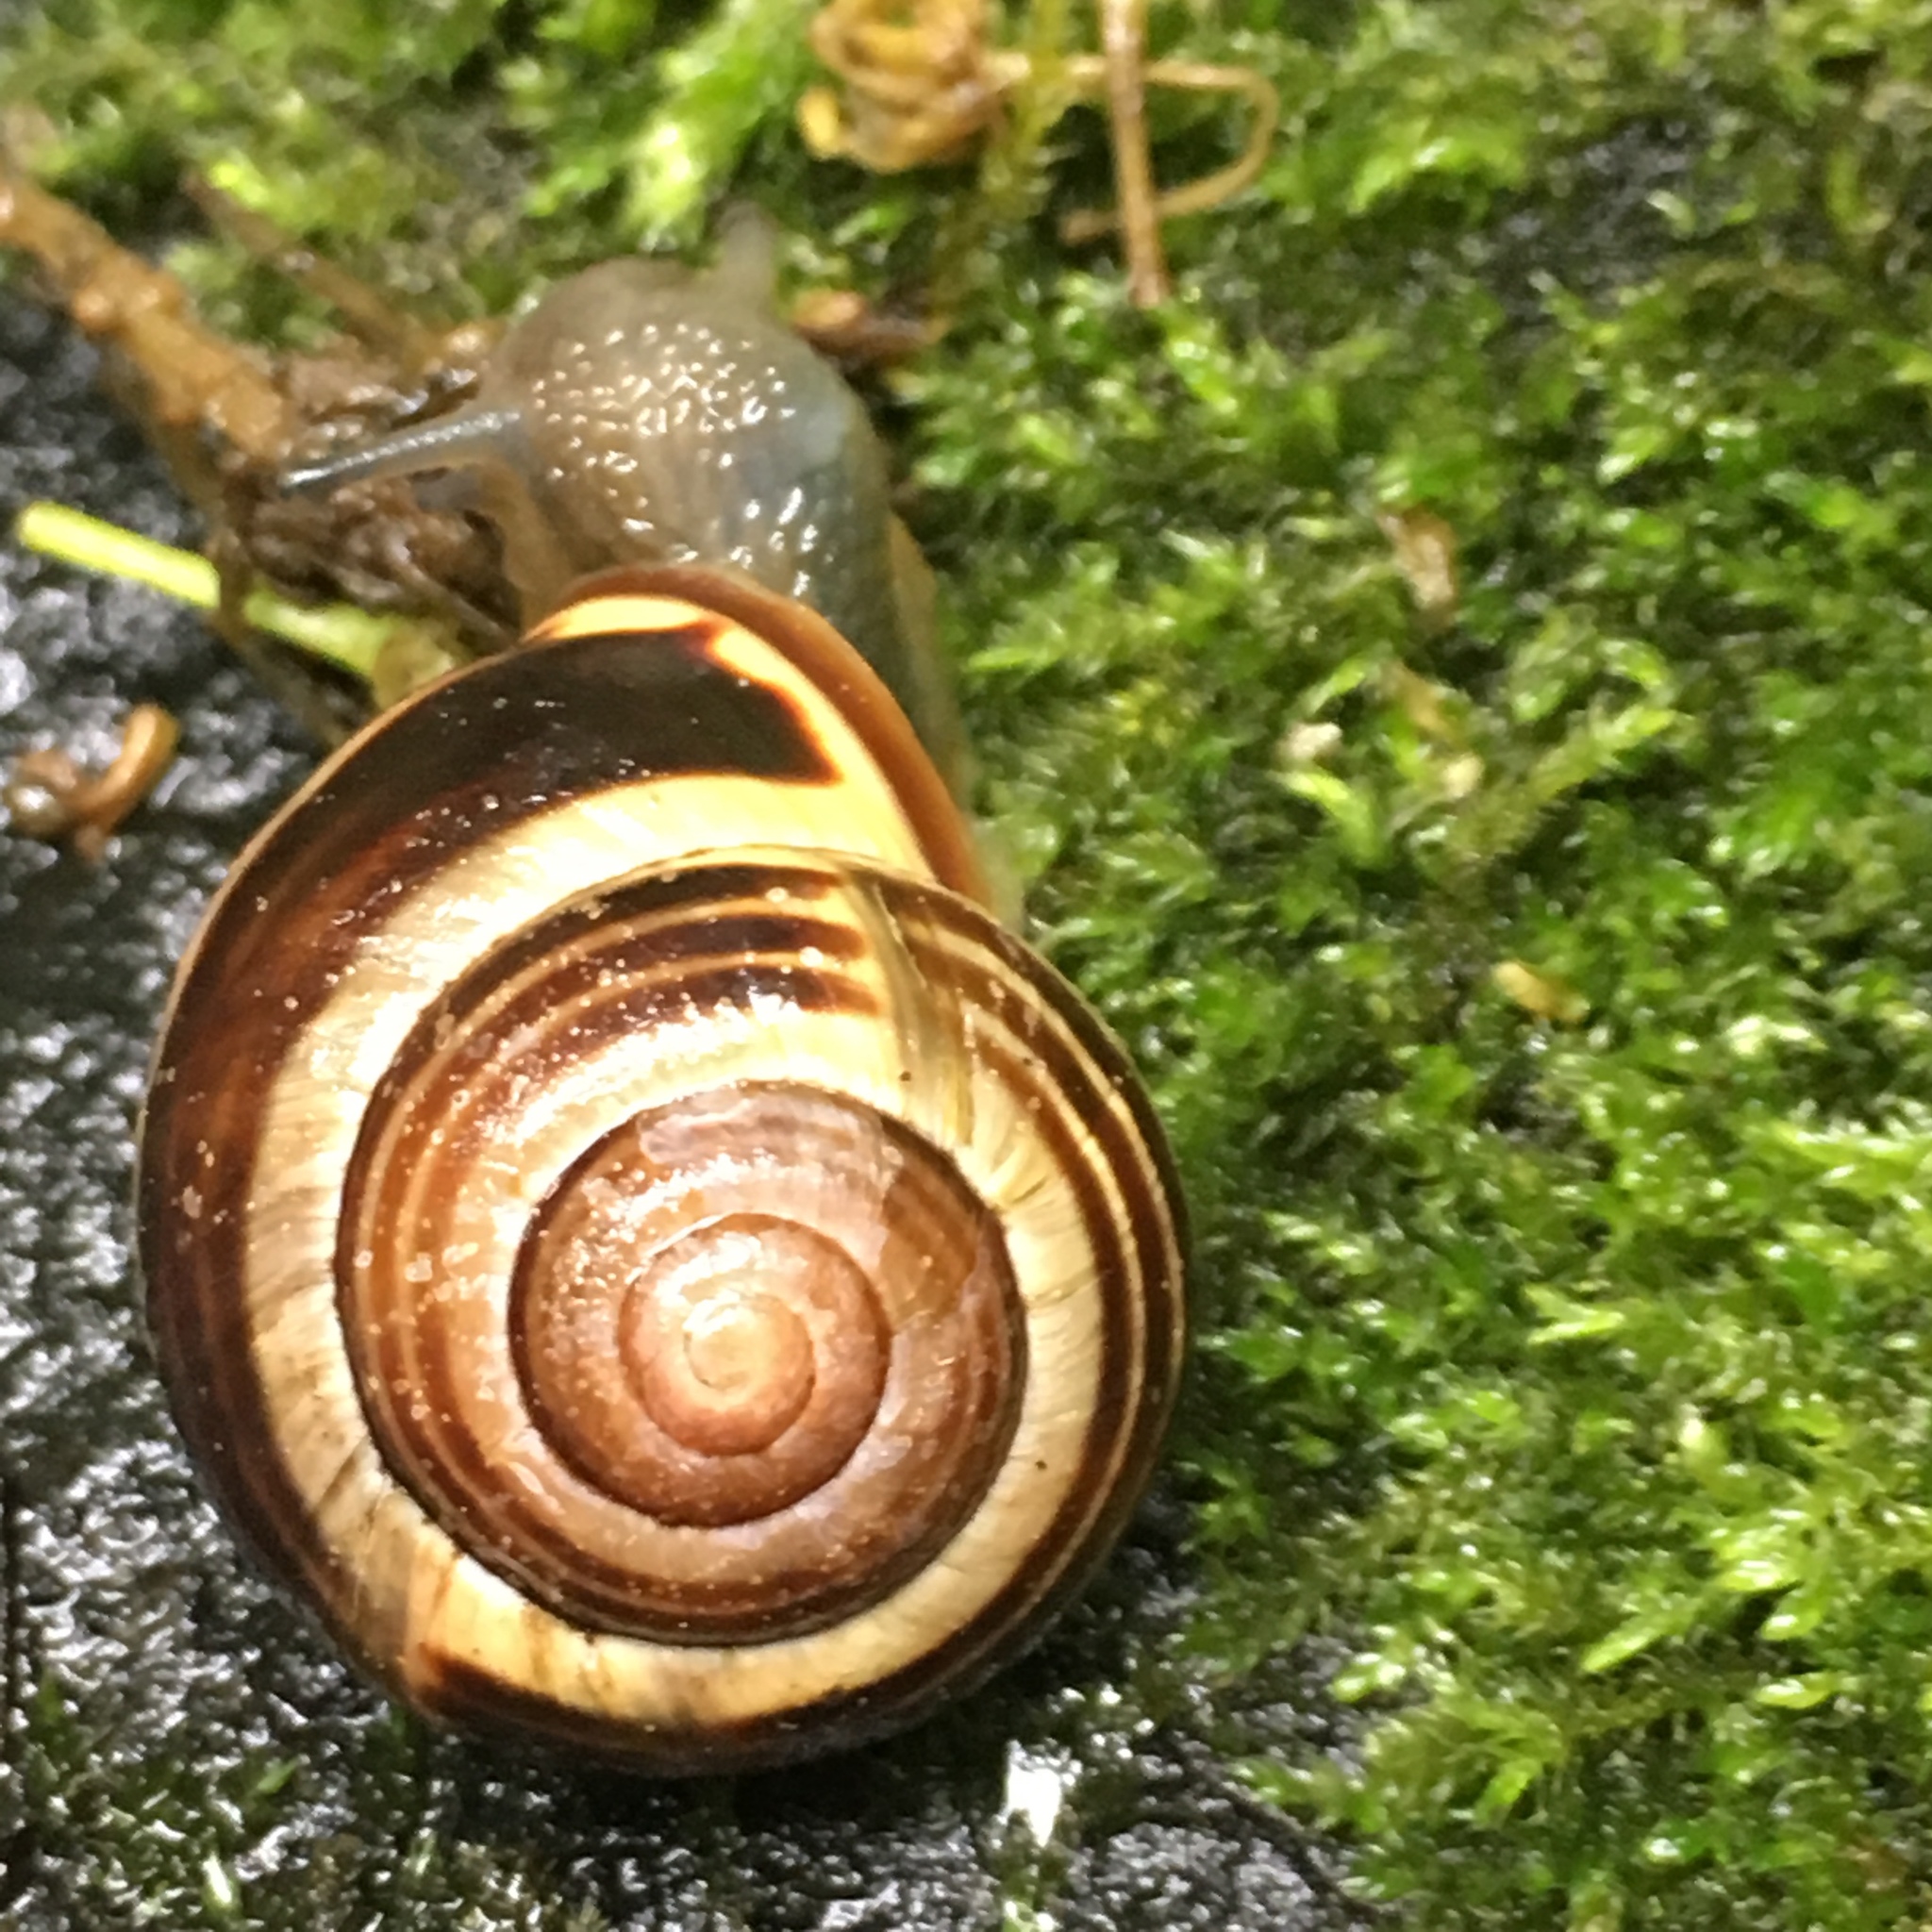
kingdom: Animalia
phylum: Mollusca
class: Gastropoda
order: Stylommatophora
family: Helicidae
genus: Cepaea
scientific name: Cepaea nemoralis
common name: Grovesnail
